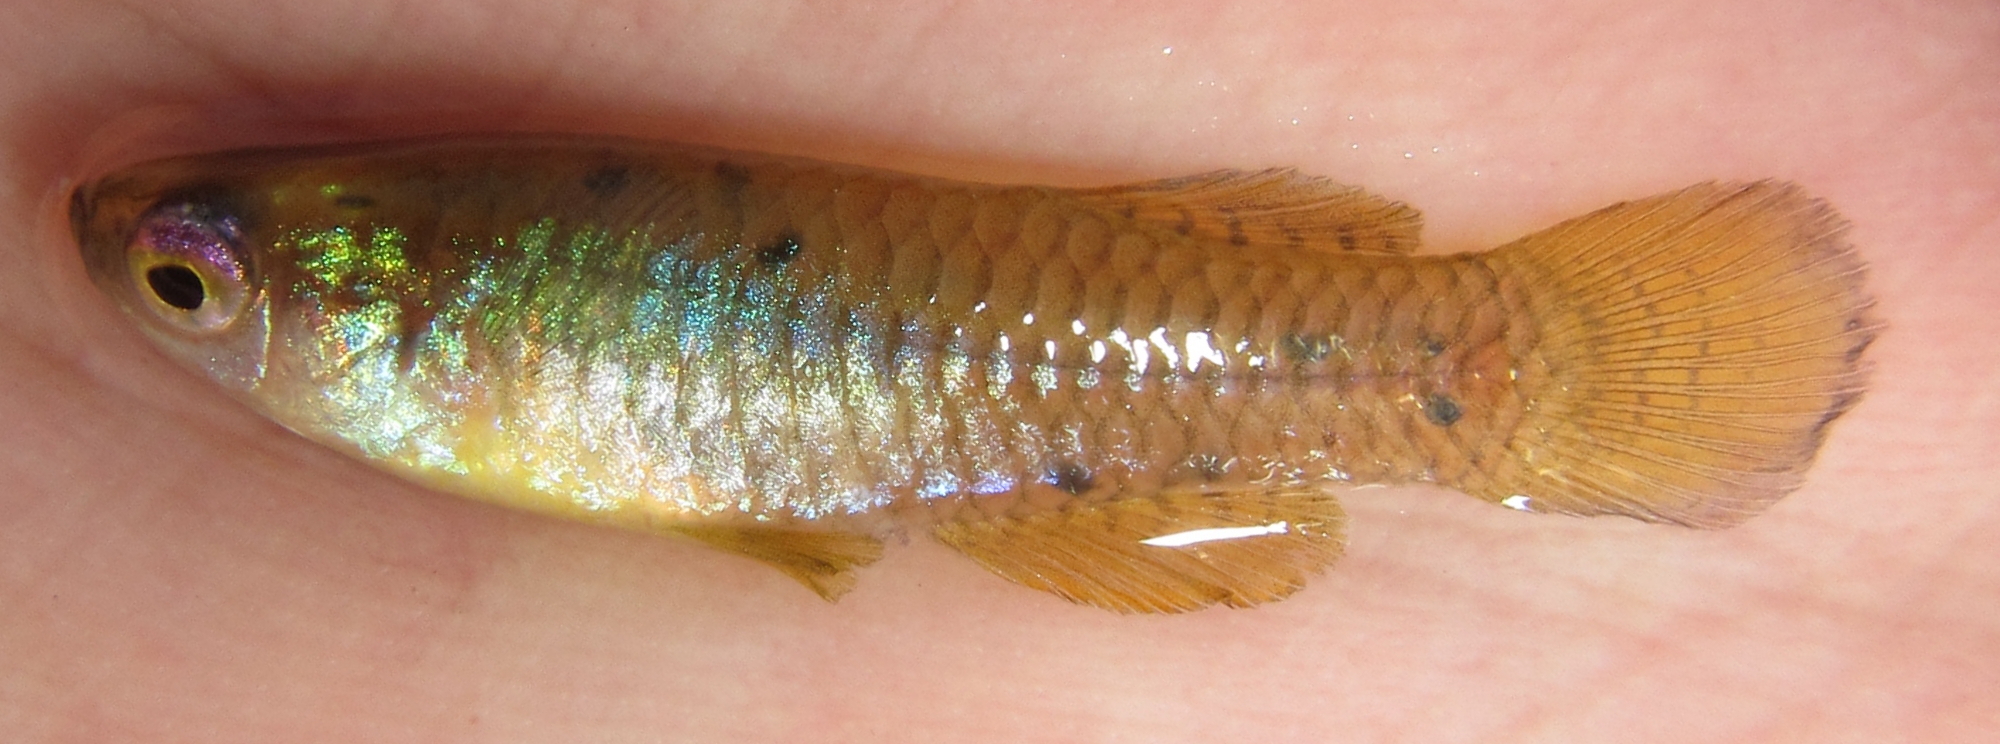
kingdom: Animalia
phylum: Chordata
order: Cyprinodontiformes
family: Poeciliidae
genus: Micropanchax
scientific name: Micropanchax hutereaui
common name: Meshscaled topminnow
